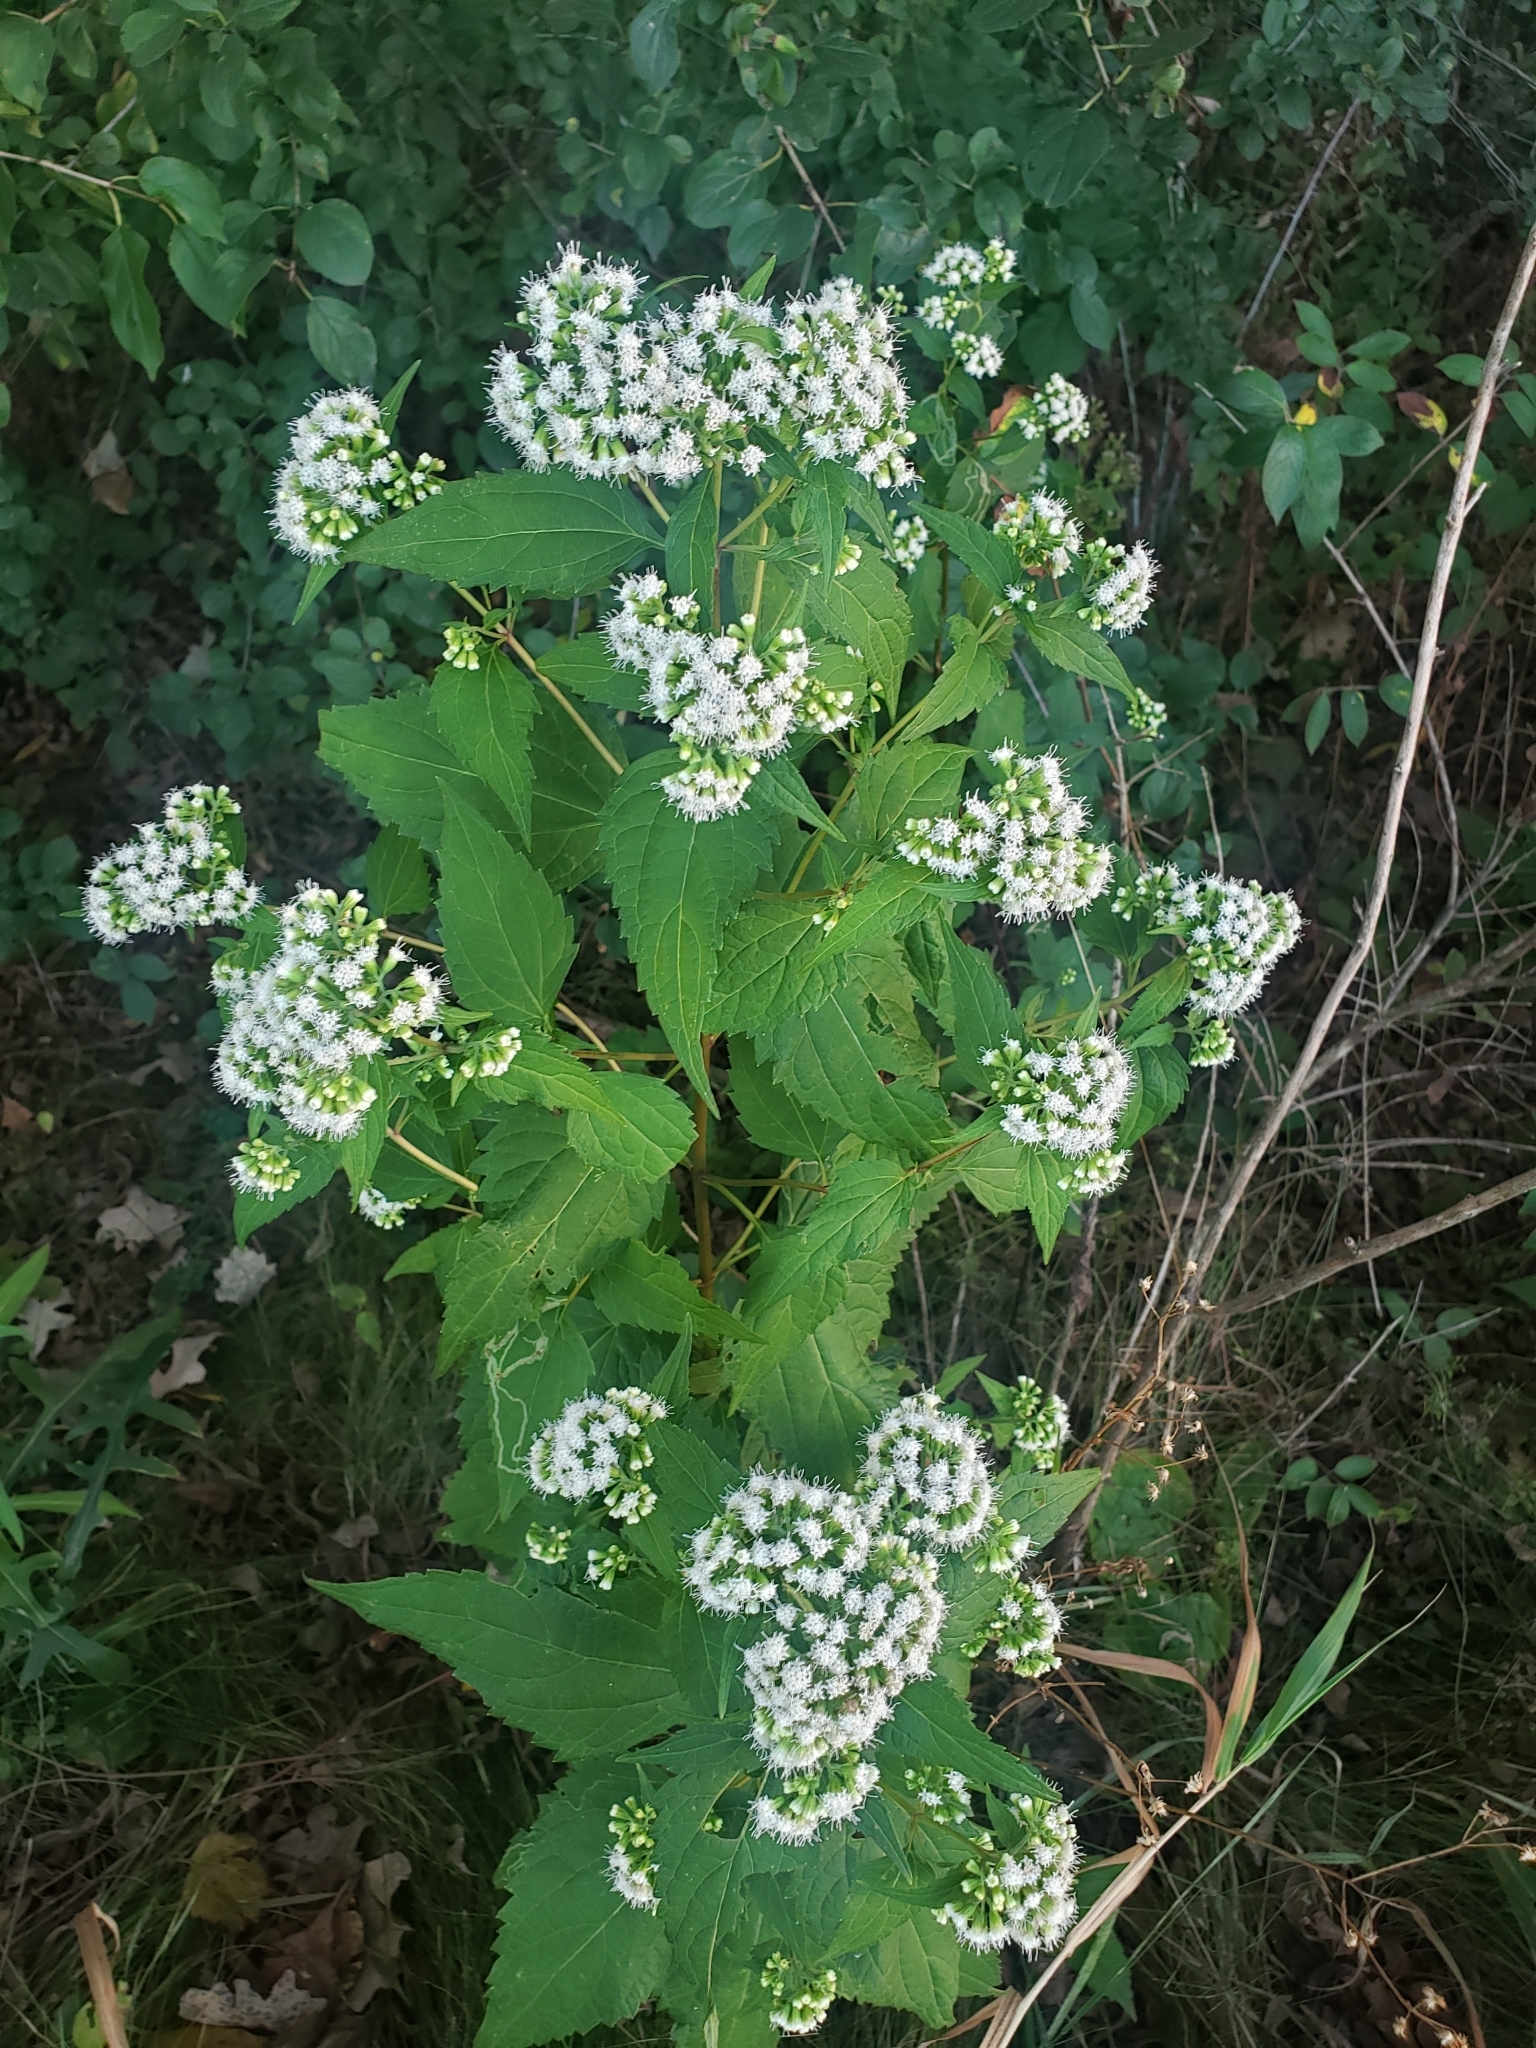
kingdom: Plantae
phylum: Tracheophyta
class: Magnoliopsida
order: Asterales
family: Asteraceae
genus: Ageratina
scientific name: Ageratina altissima
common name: White snakeroot
